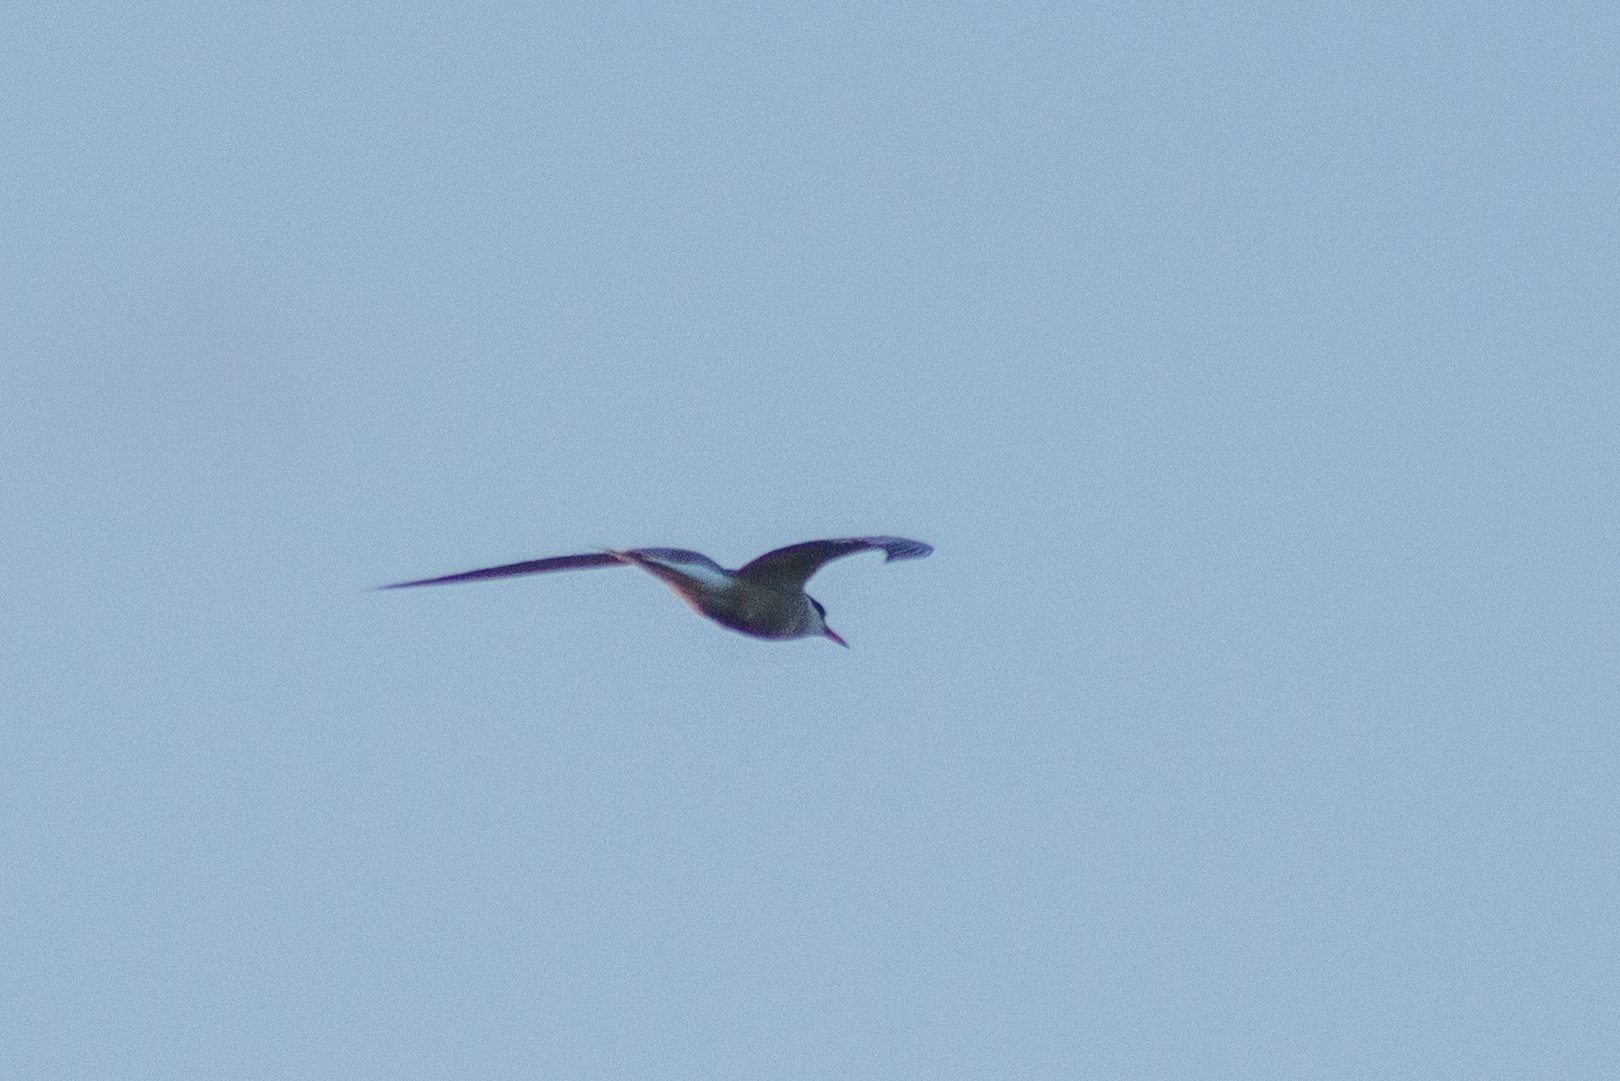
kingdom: Animalia
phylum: Chordata
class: Aves
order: Charadriiformes
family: Laridae
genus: Sterna
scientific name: Sterna hirundo
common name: Common tern
